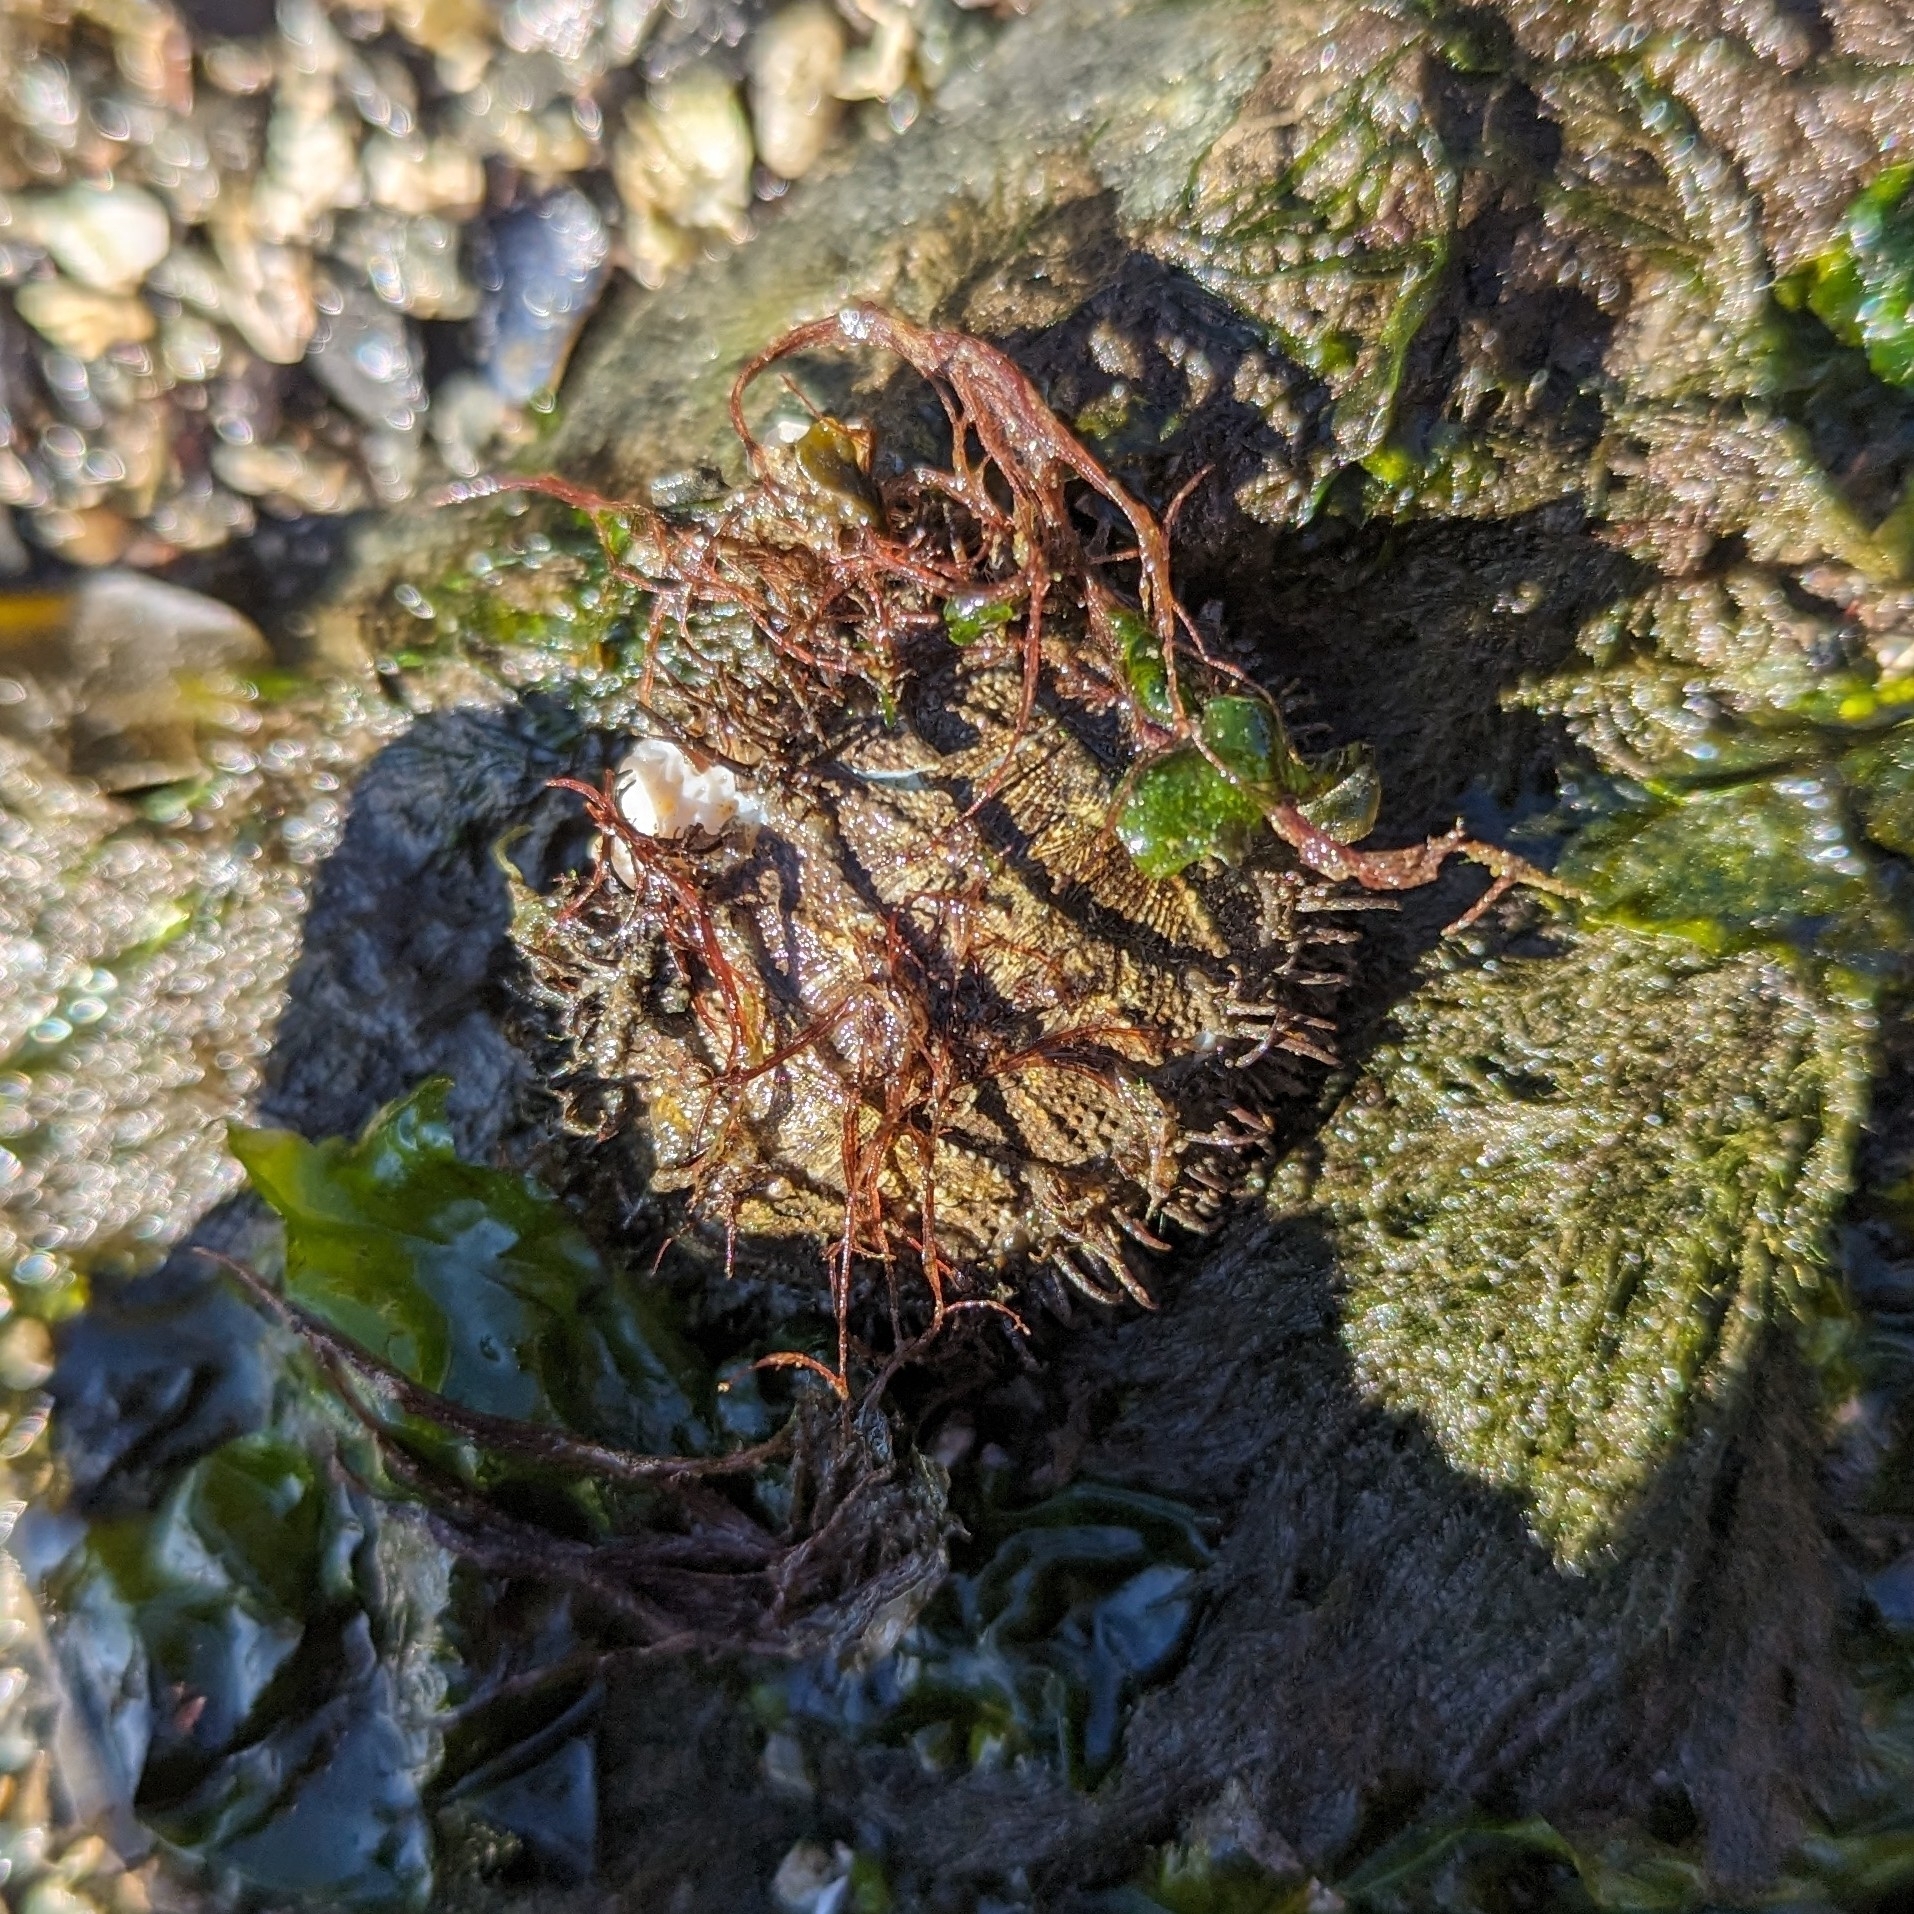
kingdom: Animalia
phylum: Mollusca
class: Polyplacophora
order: Chitonida
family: Mopaliidae
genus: Mopalia
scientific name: Mopalia muscosa
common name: Mossy chiton
